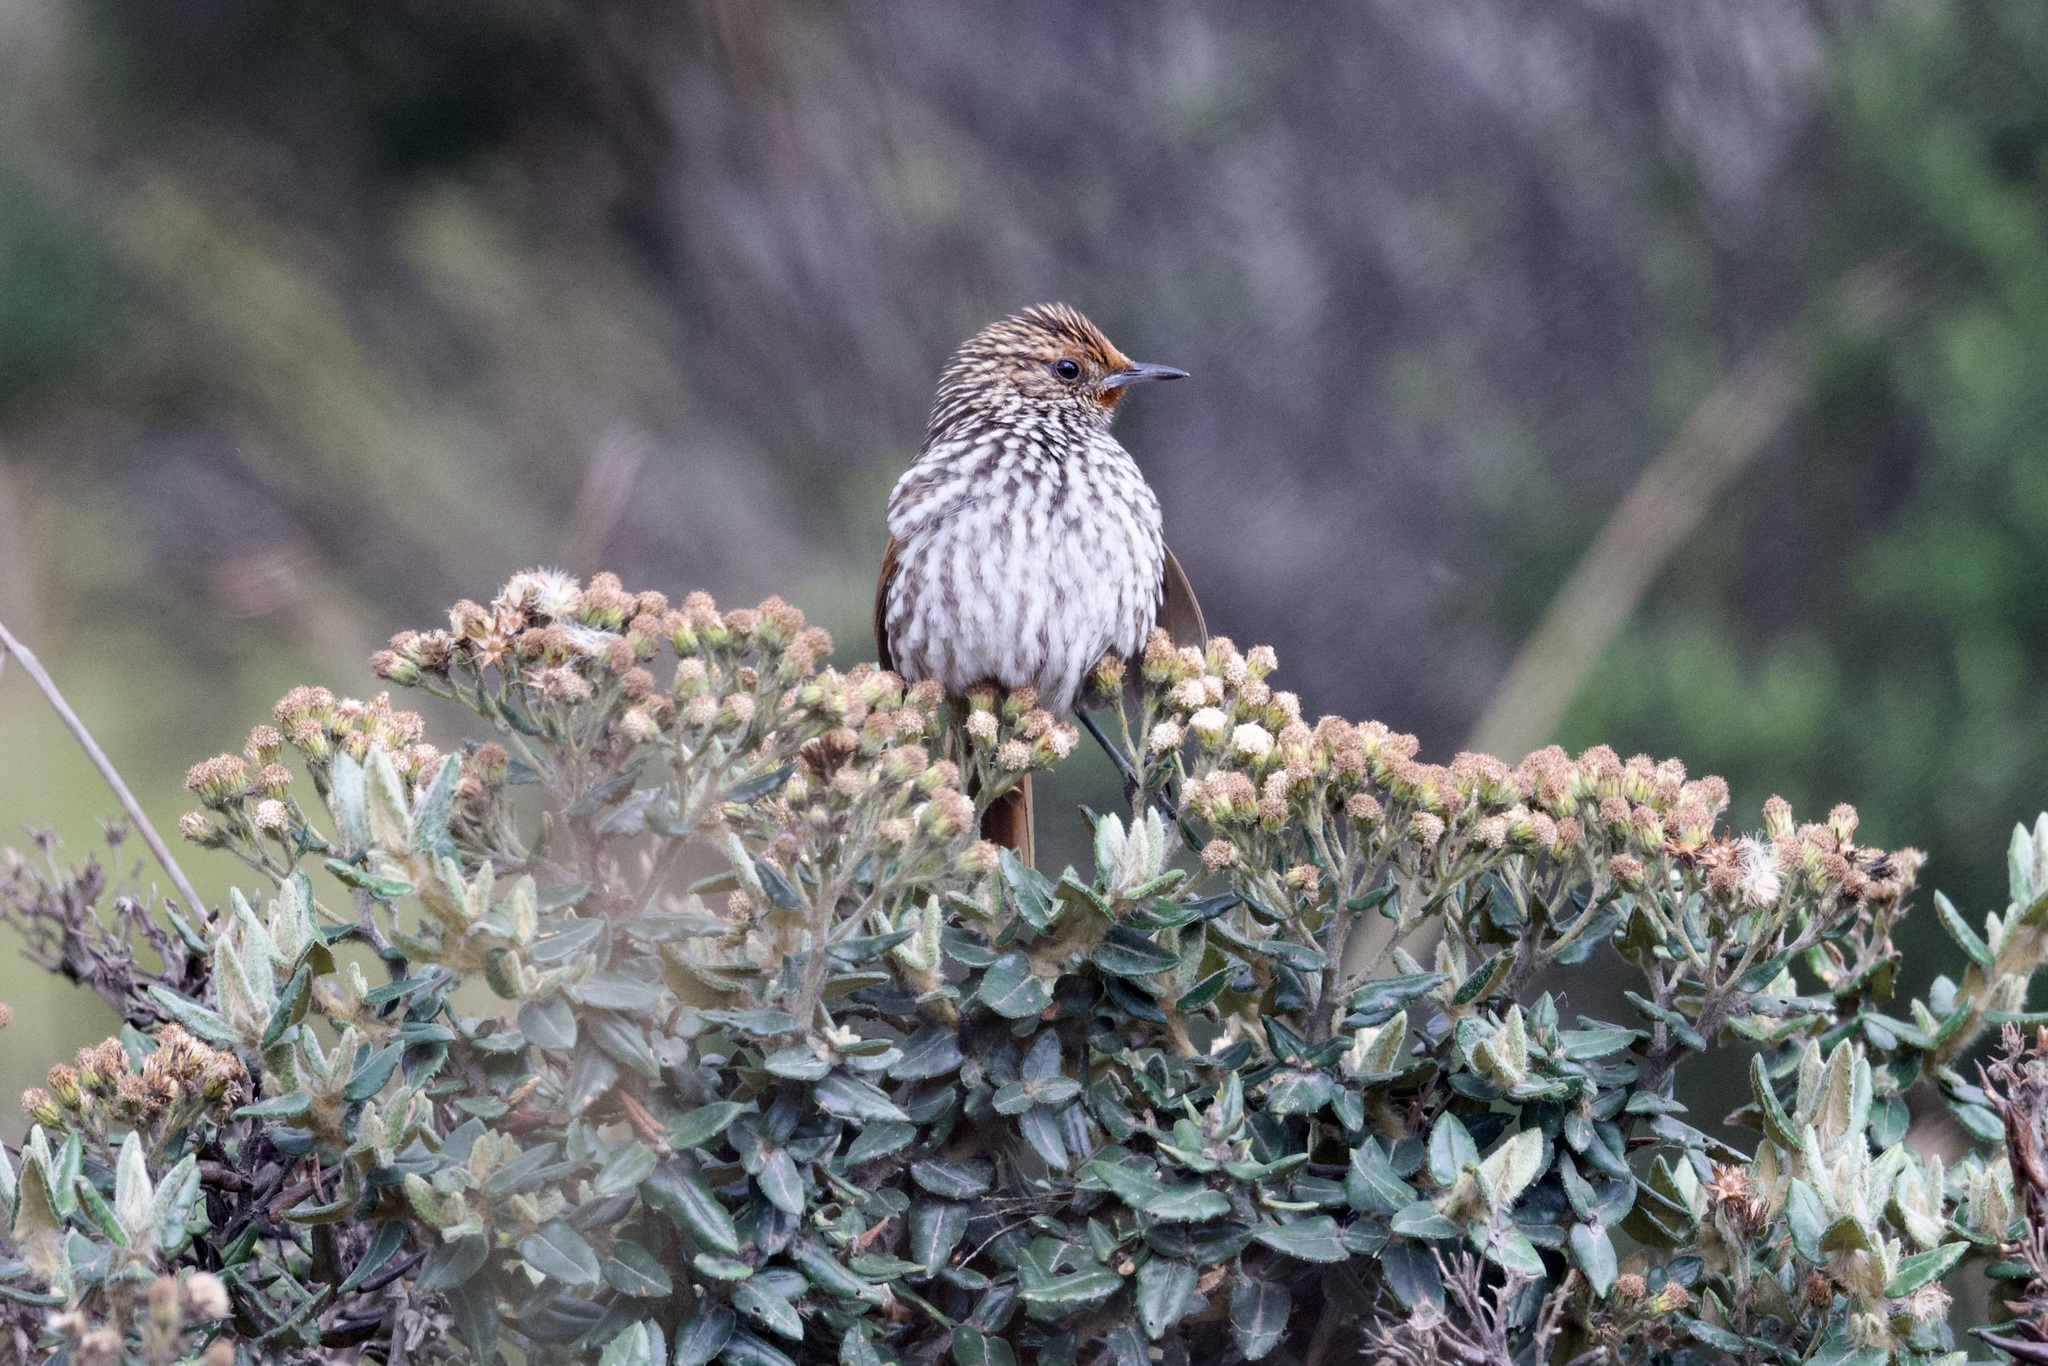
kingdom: Animalia
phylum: Chordata
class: Aves
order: Passeriformes
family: Furnariidae
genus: Asthenes
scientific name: Asthenes flammulata
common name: Many-striped canastero
